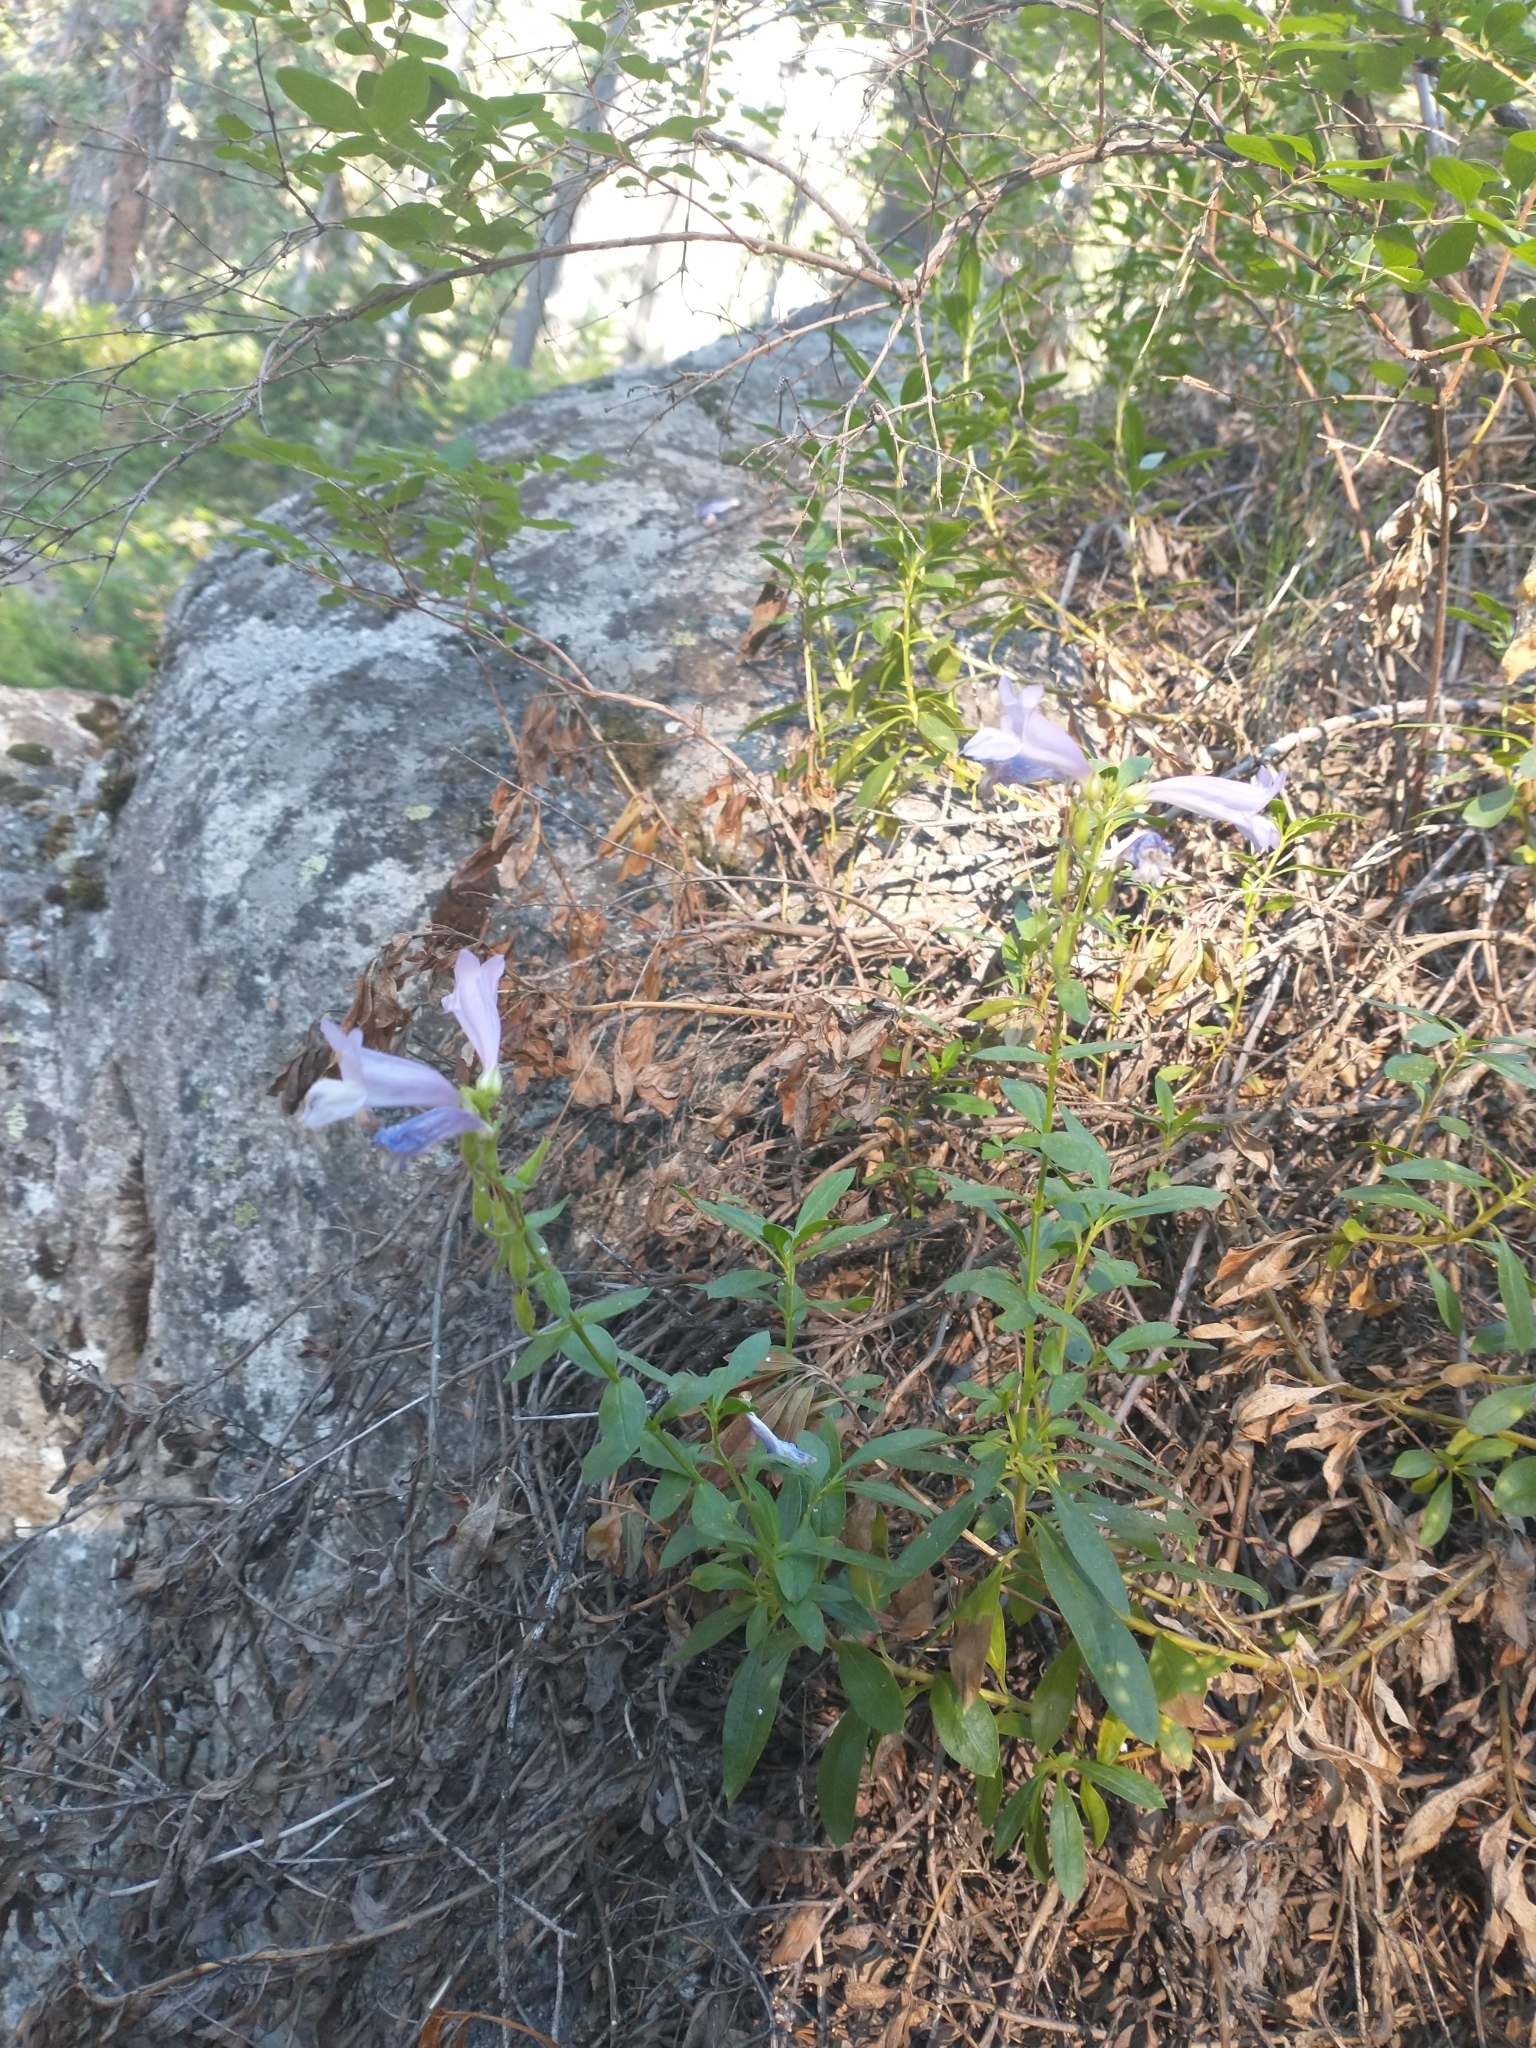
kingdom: Plantae
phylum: Tracheophyta
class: Magnoliopsida
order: Lamiales
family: Plantaginaceae
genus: Penstemon
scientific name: Penstemon fruticosus
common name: Bush penstemon
